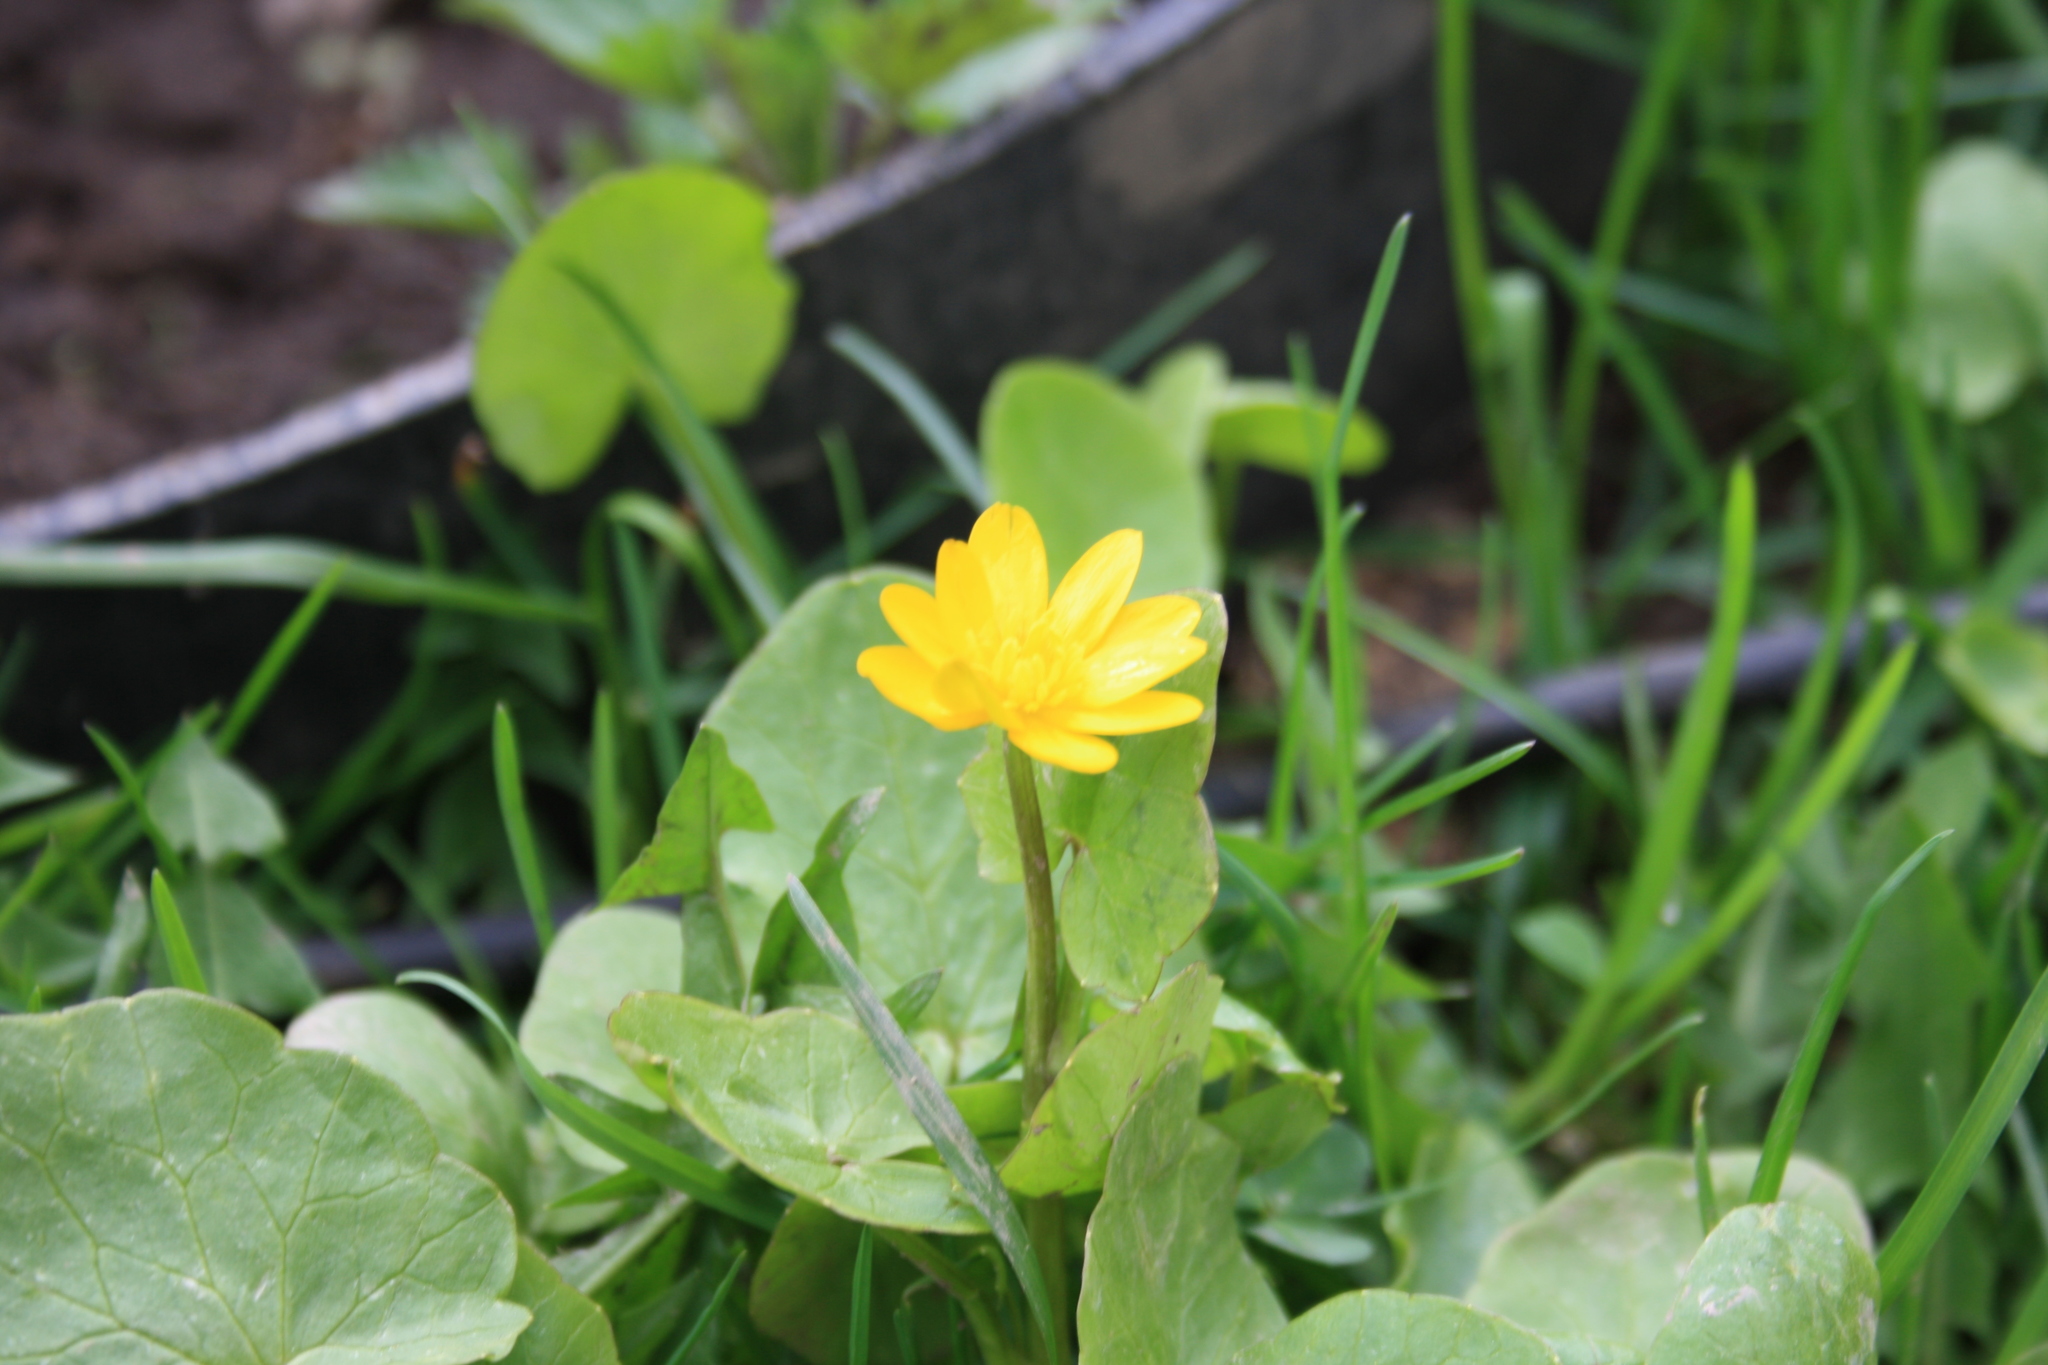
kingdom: Plantae
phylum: Tracheophyta
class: Magnoliopsida
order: Ranunculales
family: Ranunculaceae
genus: Ficaria
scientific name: Ficaria verna
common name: Lesser celandine
